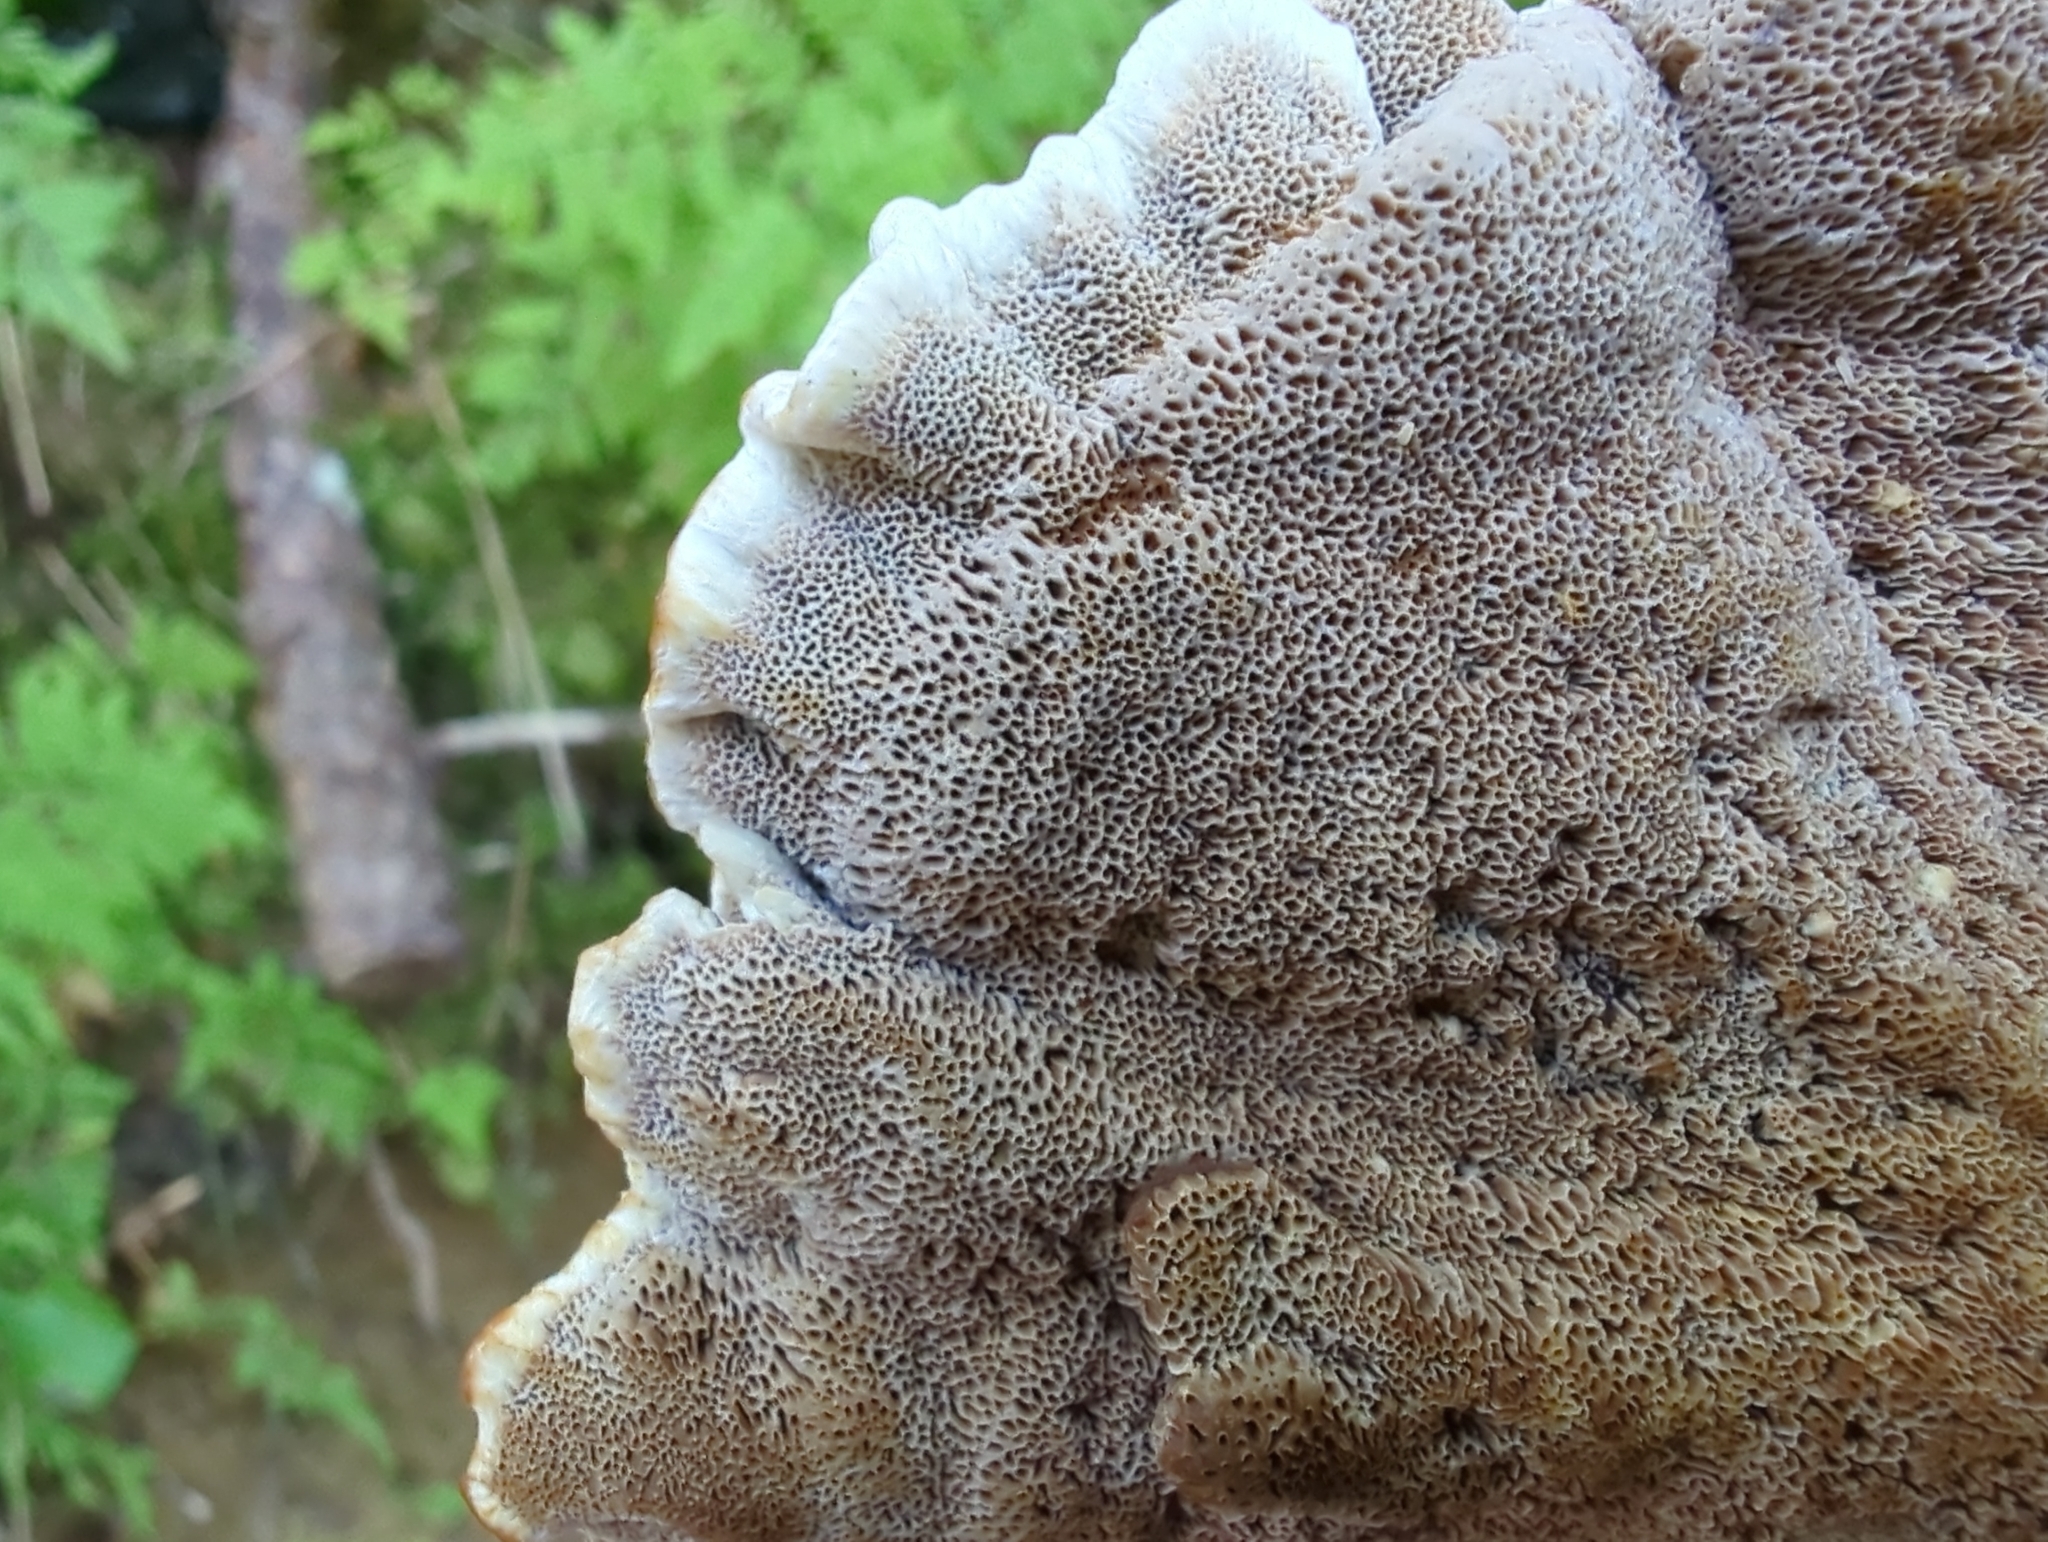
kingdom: Fungi
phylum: Basidiomycota
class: Agaricomycetes
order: Hymenochaetales
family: Hymenochaetaceae
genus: Onnia
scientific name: Onnia tomentosa
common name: Velvet rosette
